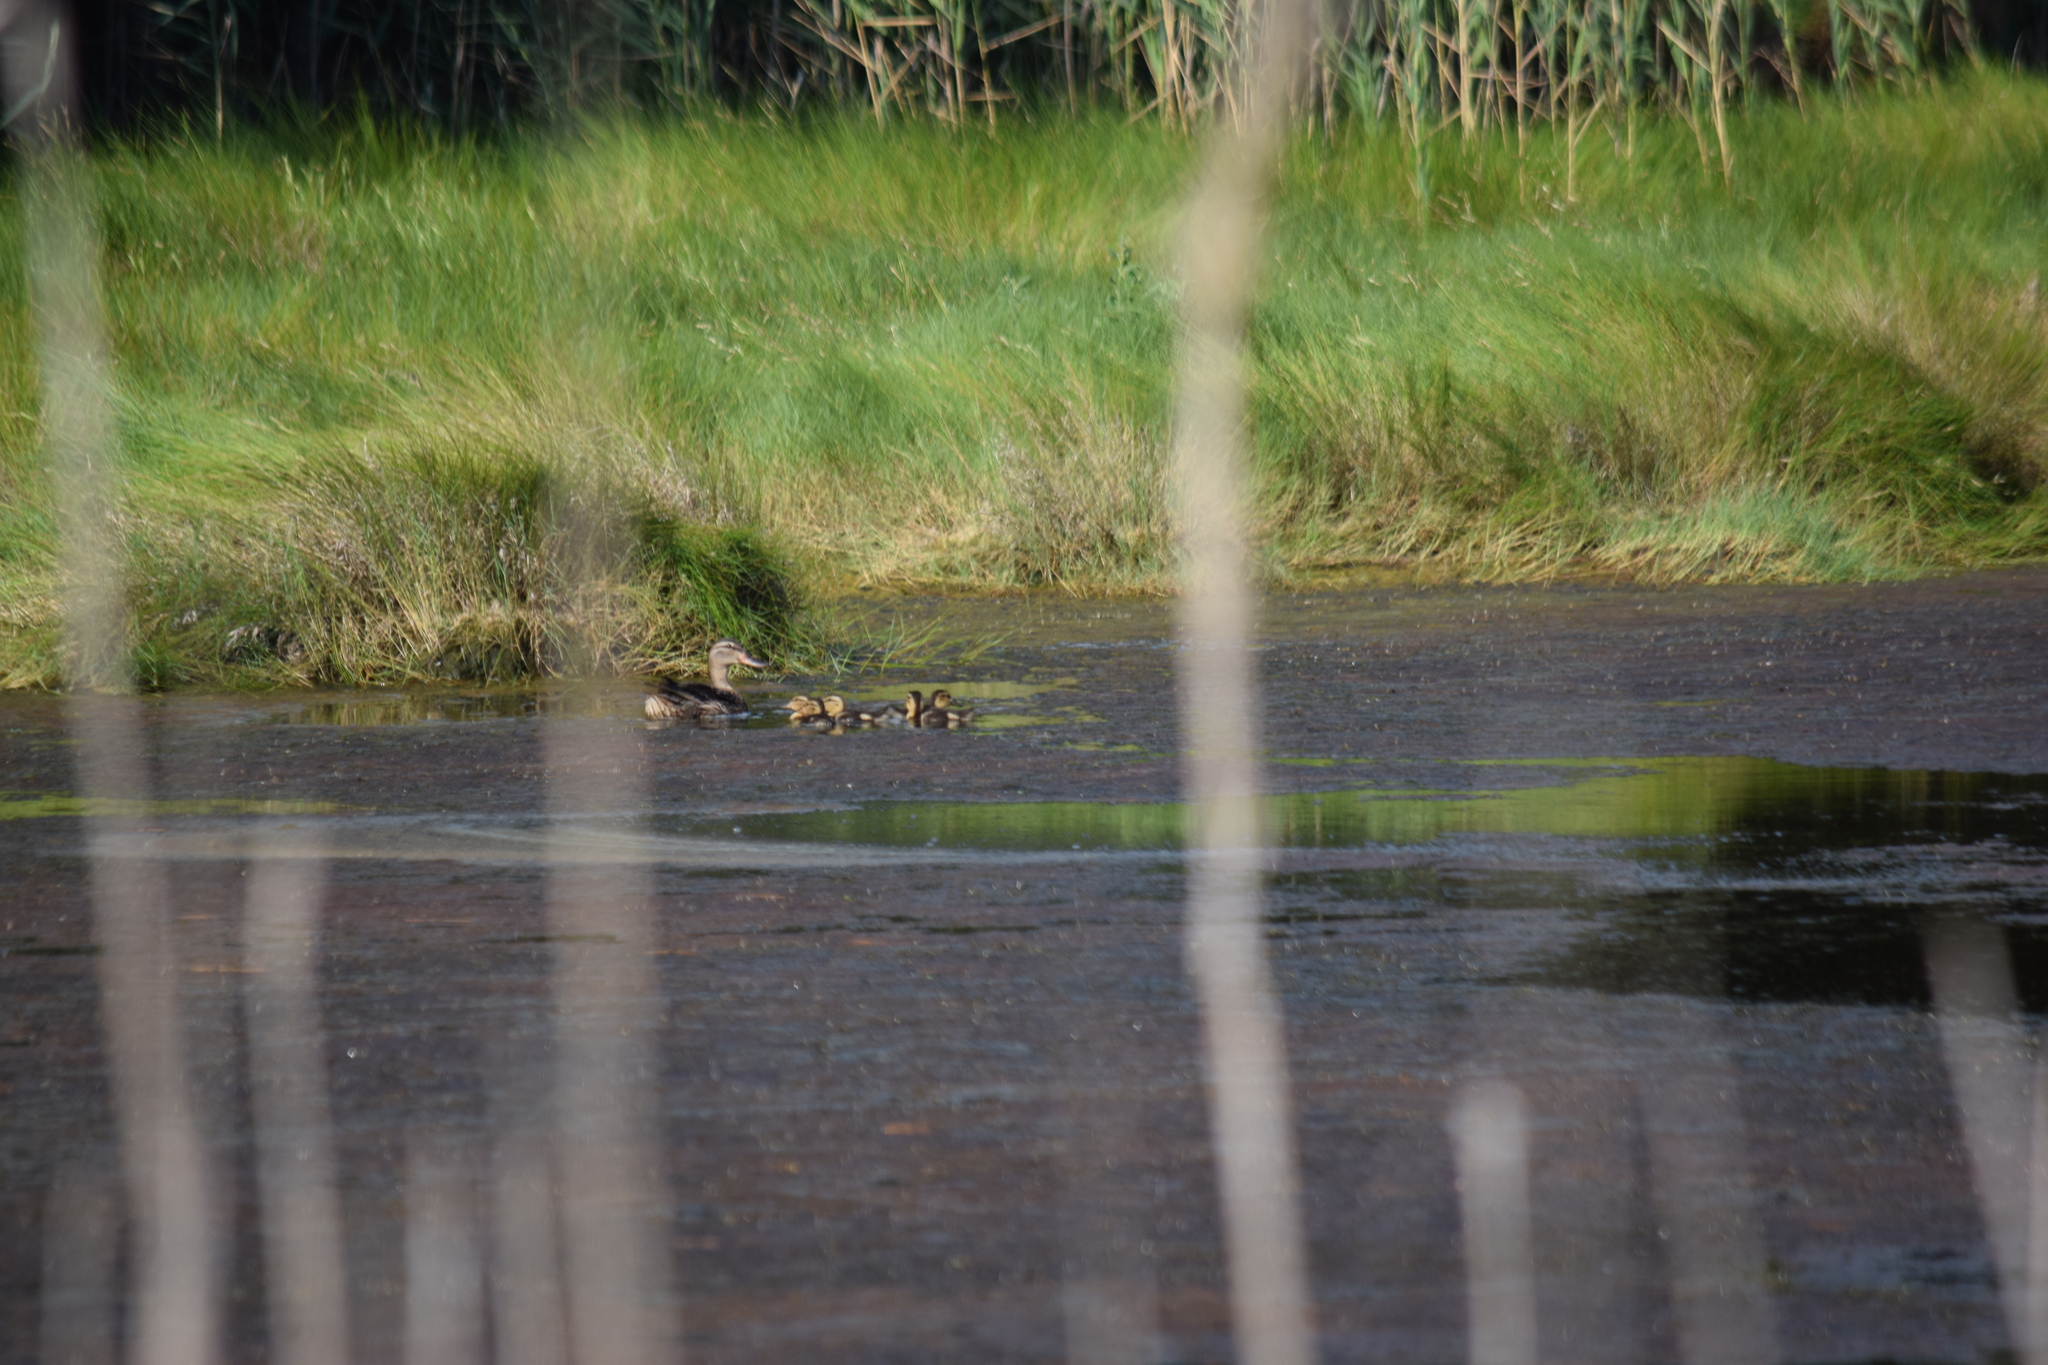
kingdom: Animalia
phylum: Chordata
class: Aves
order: Anseriformes
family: Anatidae
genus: Anas
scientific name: Anas platyrhynchos
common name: Mallard
